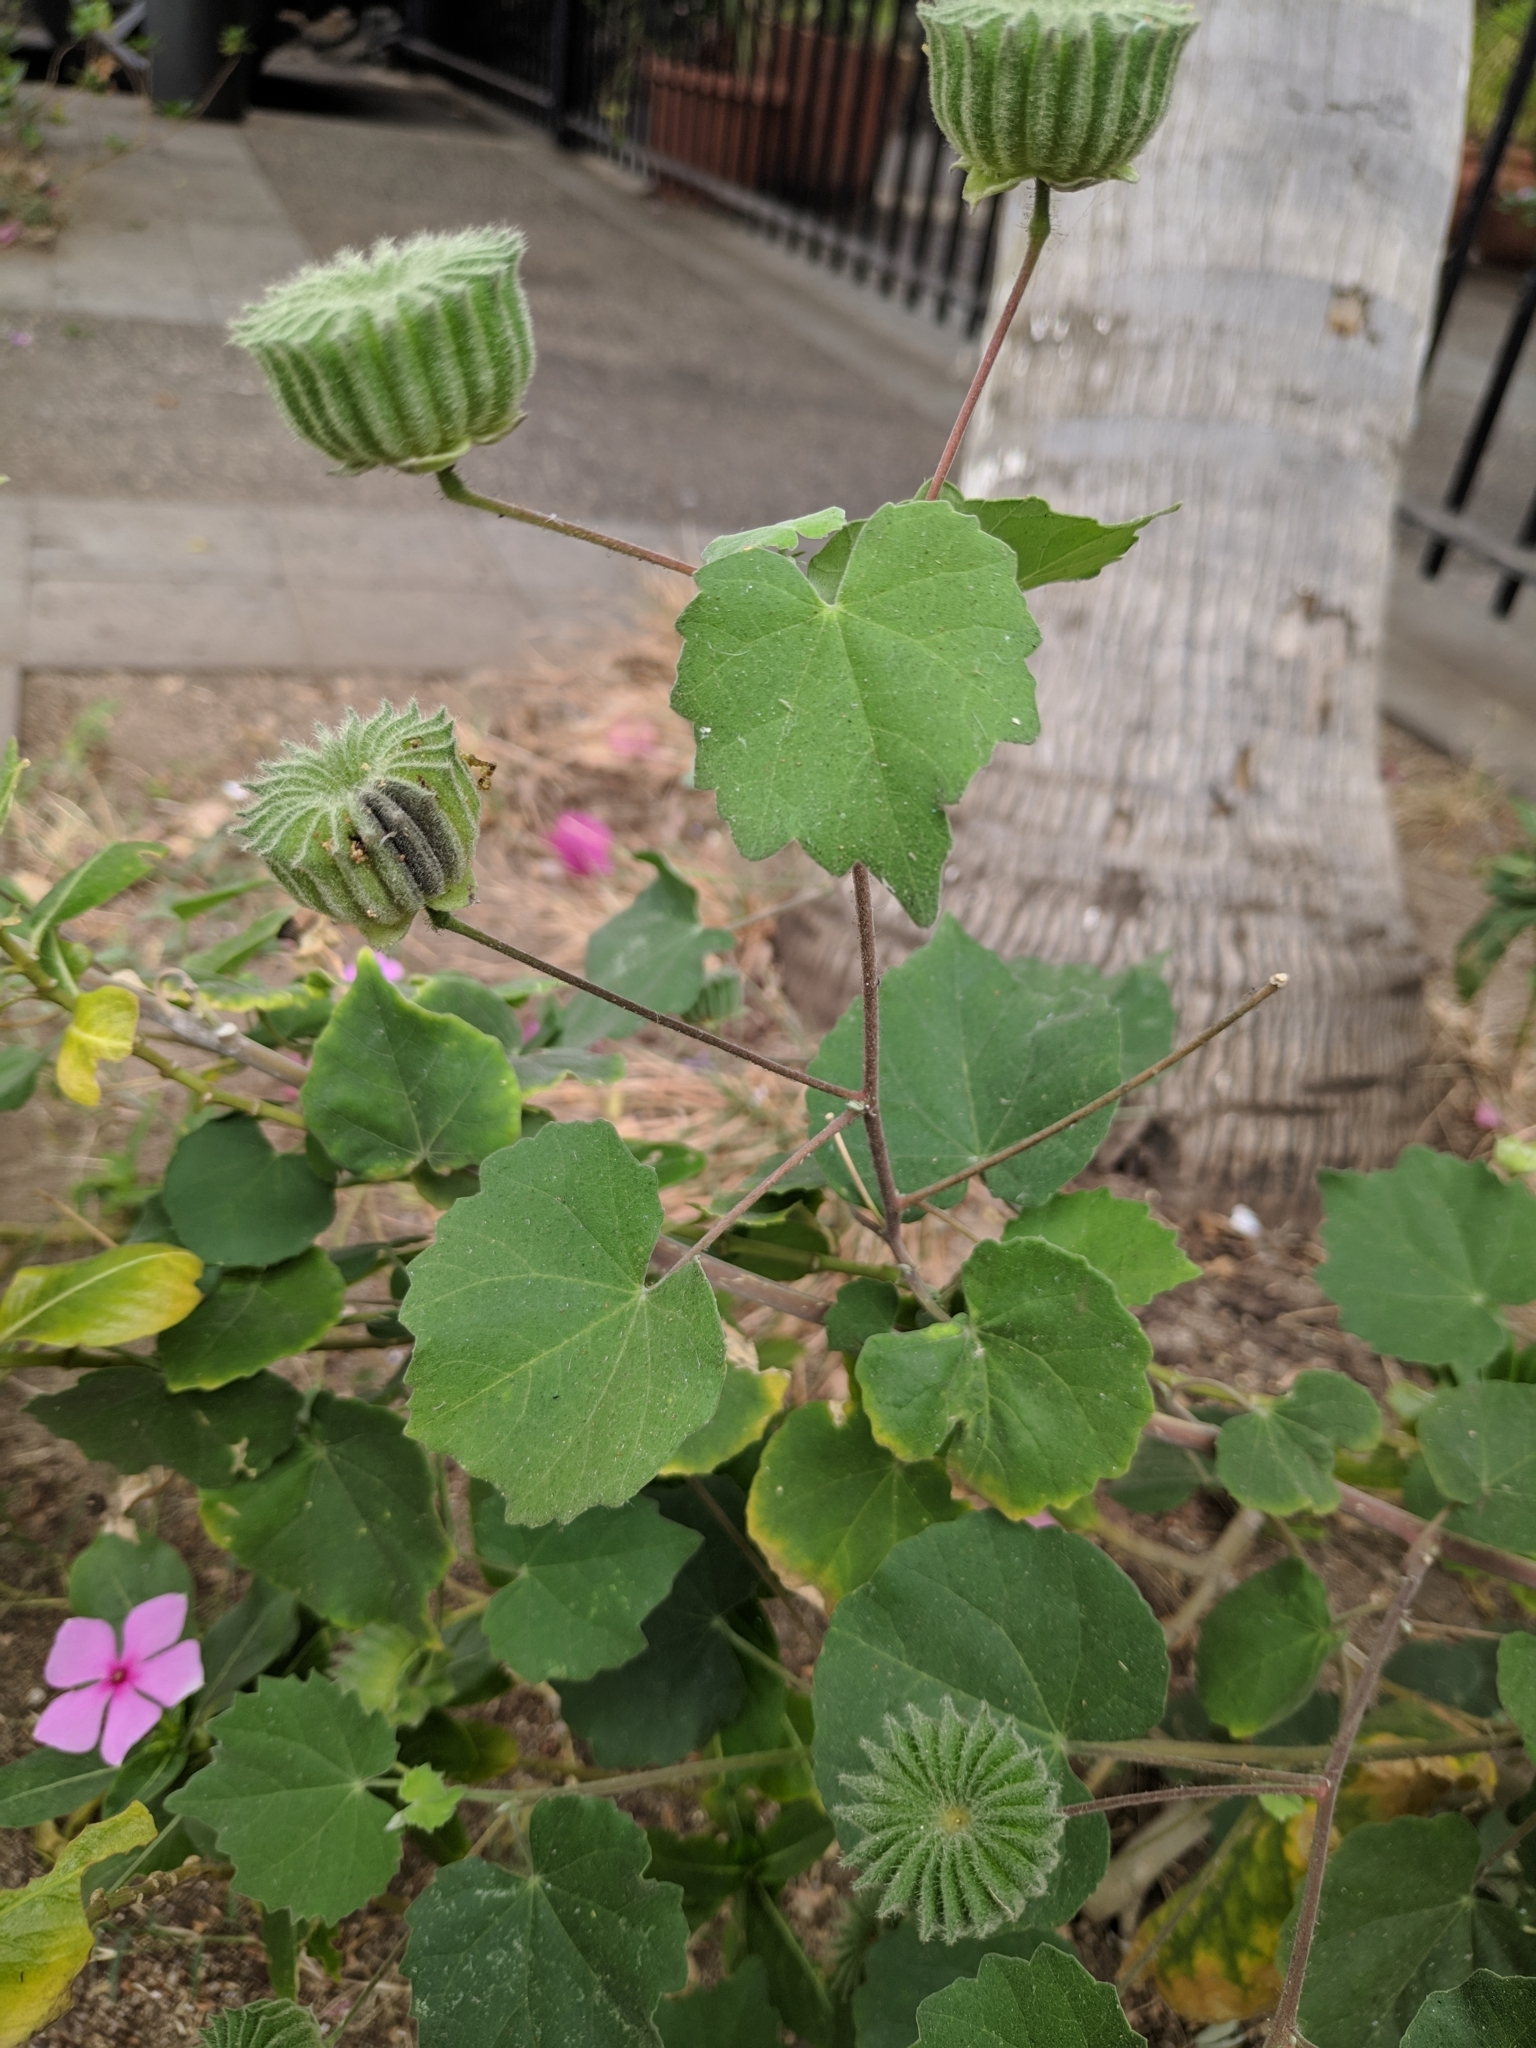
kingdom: Plantae
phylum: Tracheophyta
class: Magnoliopsida
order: Malvales
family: Malvaceae
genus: Abutilon
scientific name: Abutilon indicum
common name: Indian abutilon
